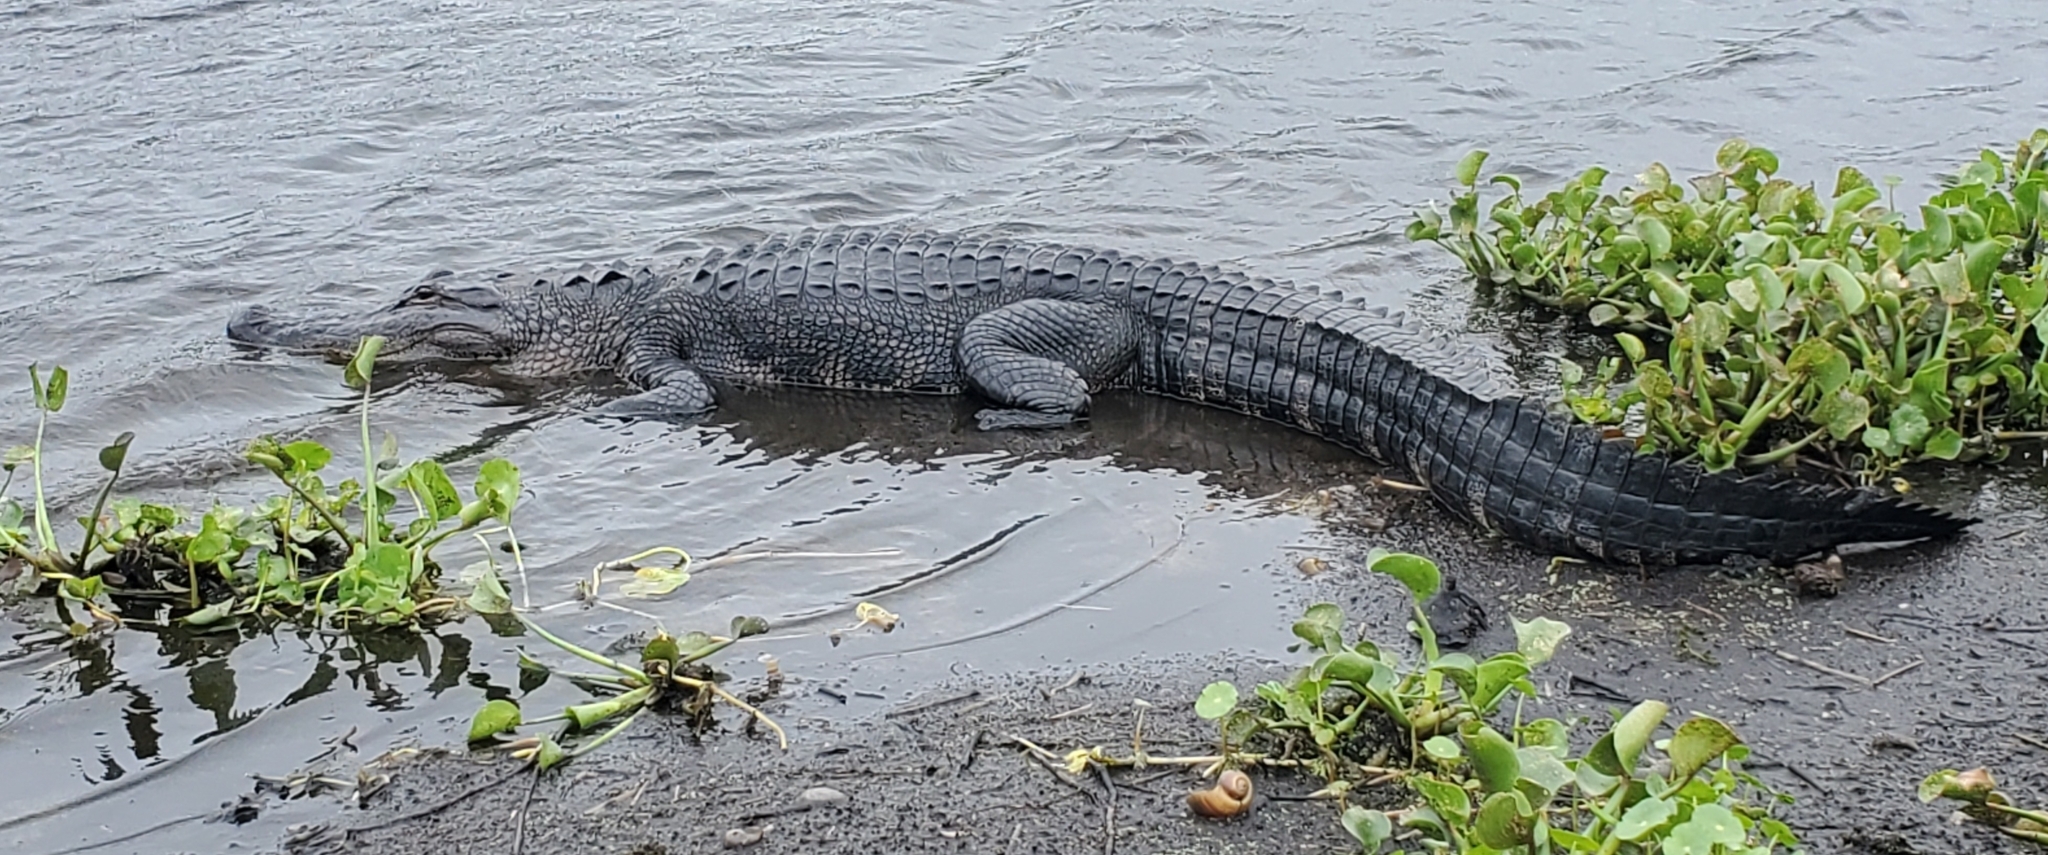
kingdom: Animalia
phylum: Chordata
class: Crocodylia
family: Alligatoridae
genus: Alligator
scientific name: Alligator mississippiensis
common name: American alligator
